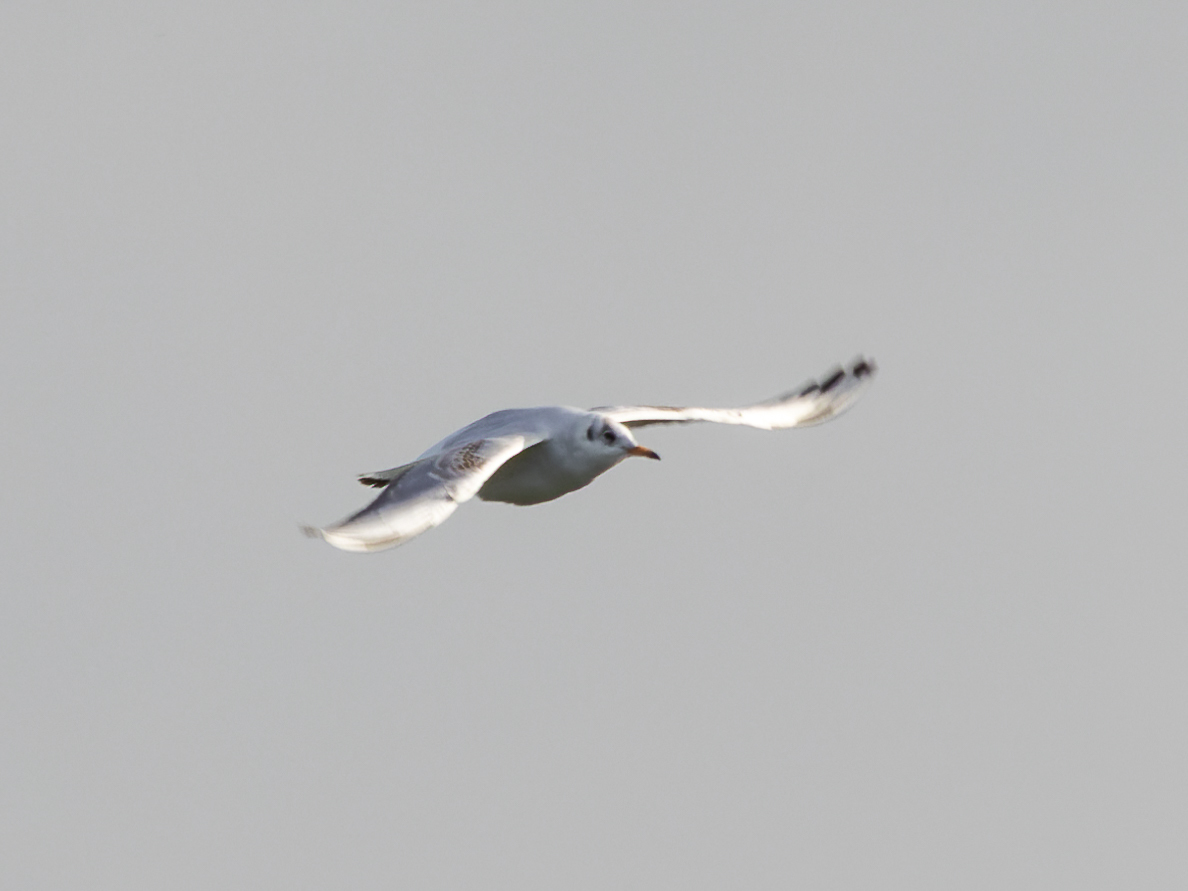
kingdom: Animalia
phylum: Chordata
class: Aves
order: Charadriiformes
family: Laridae
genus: Chroicocephalus
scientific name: Chroicocephalus ridibundus
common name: Black-headed gull
